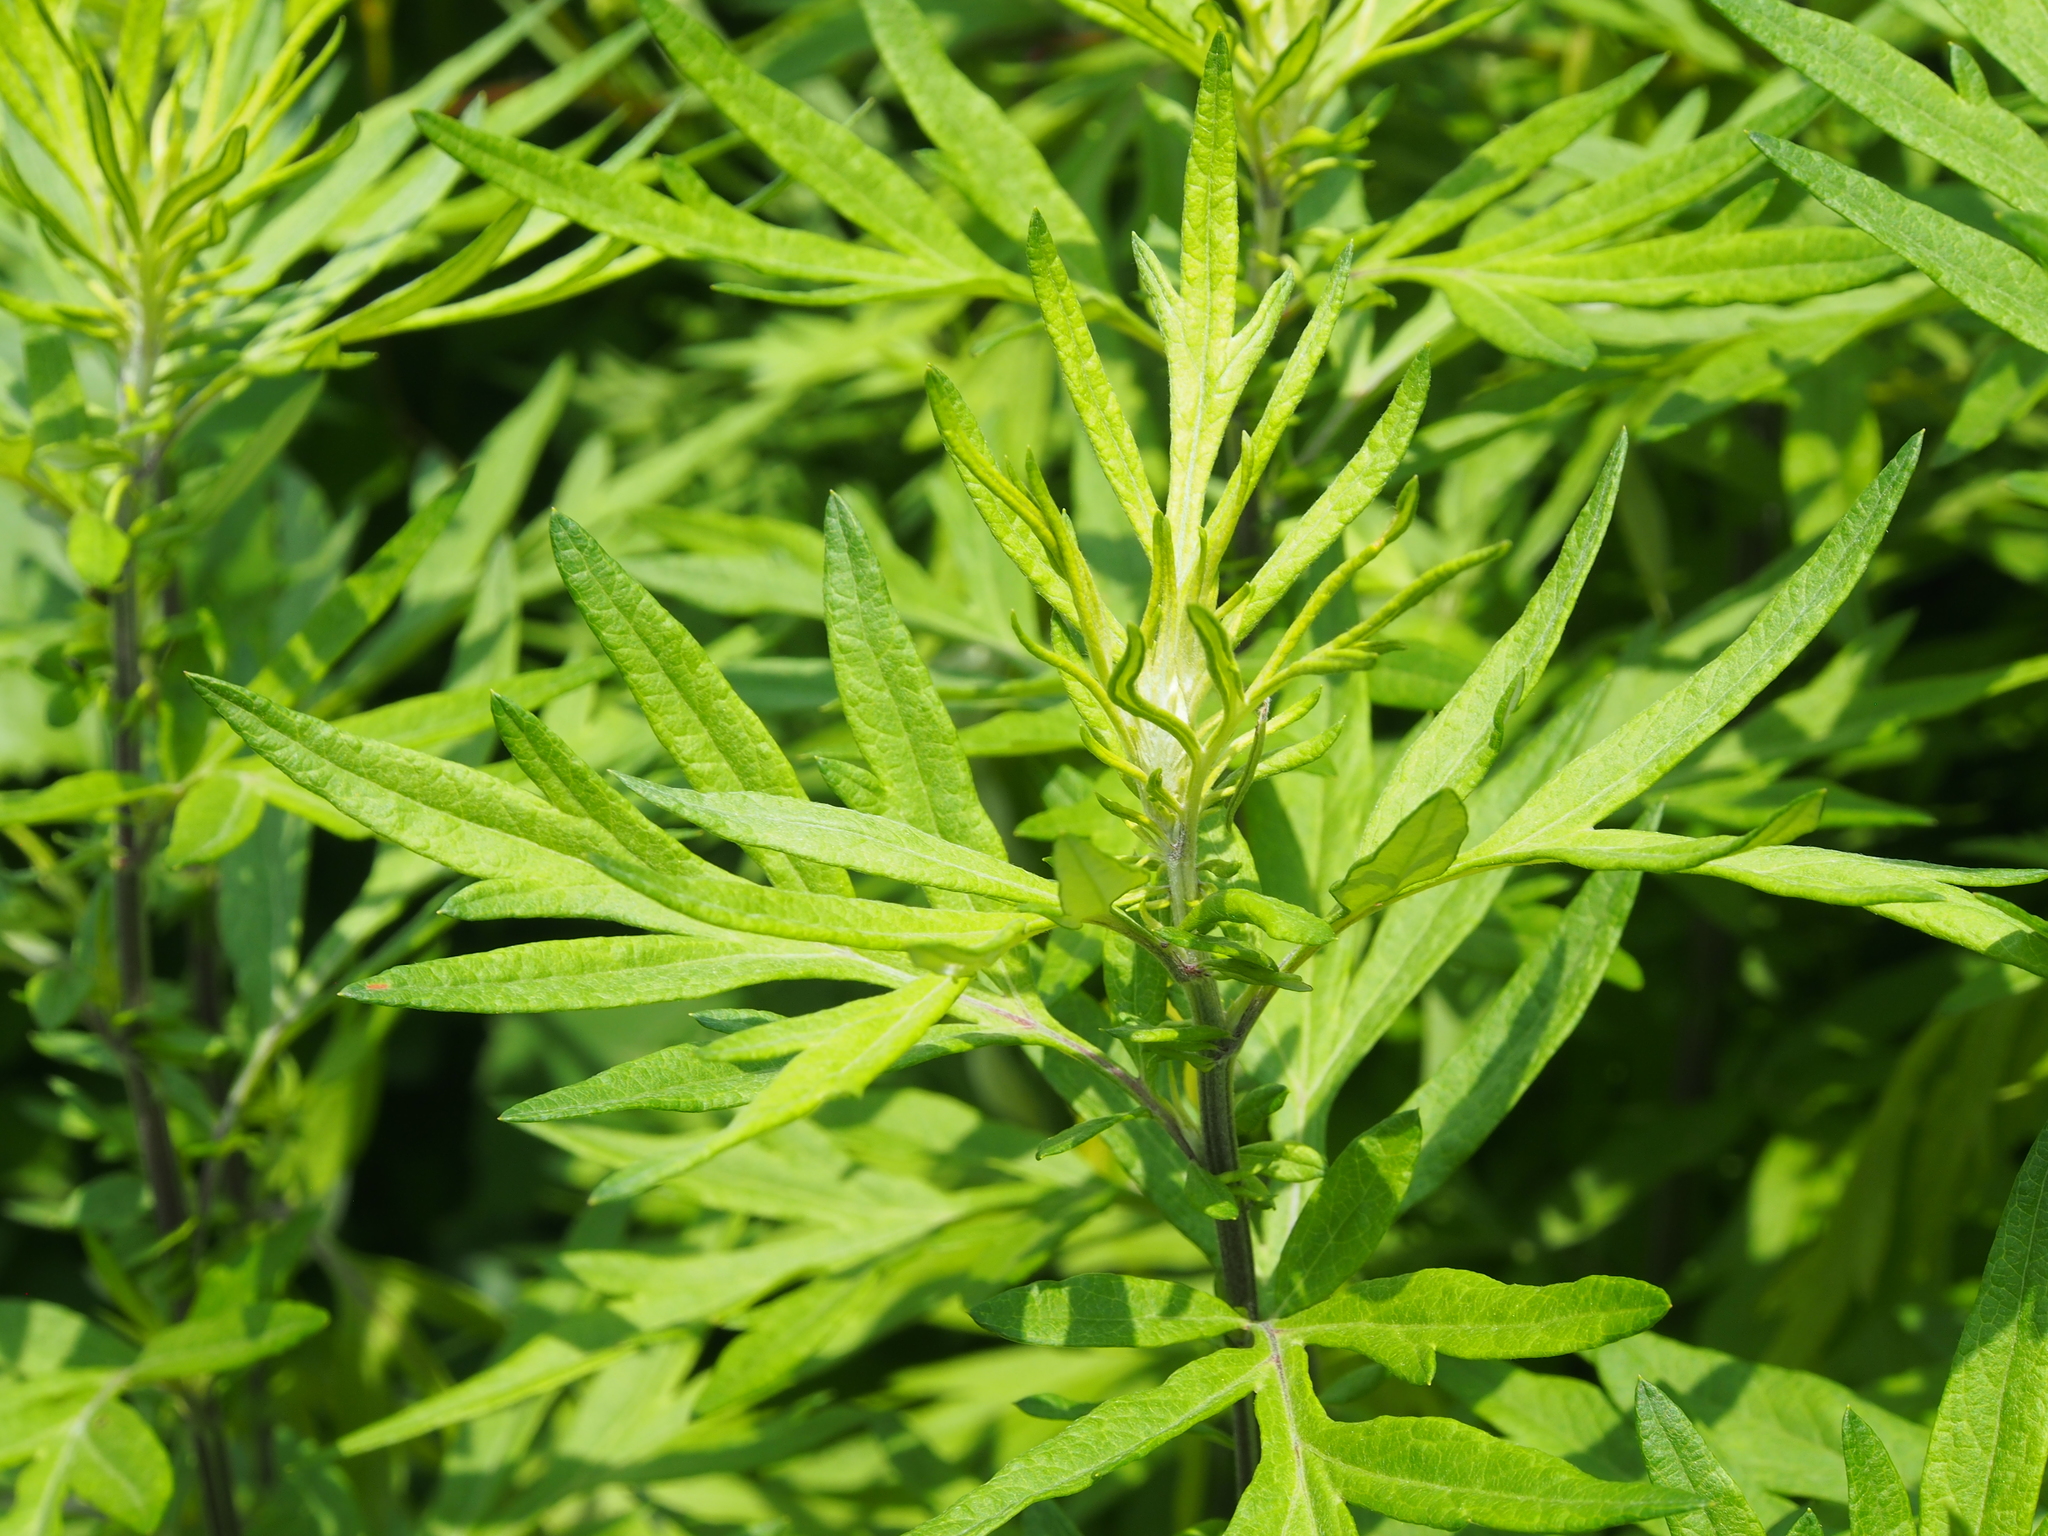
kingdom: Plantae
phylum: Tracheophyta
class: Magnoliopsida
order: Asterales
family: Asteraceae
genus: Artemisia
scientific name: Artemisia vulgaris
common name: Mugwort
